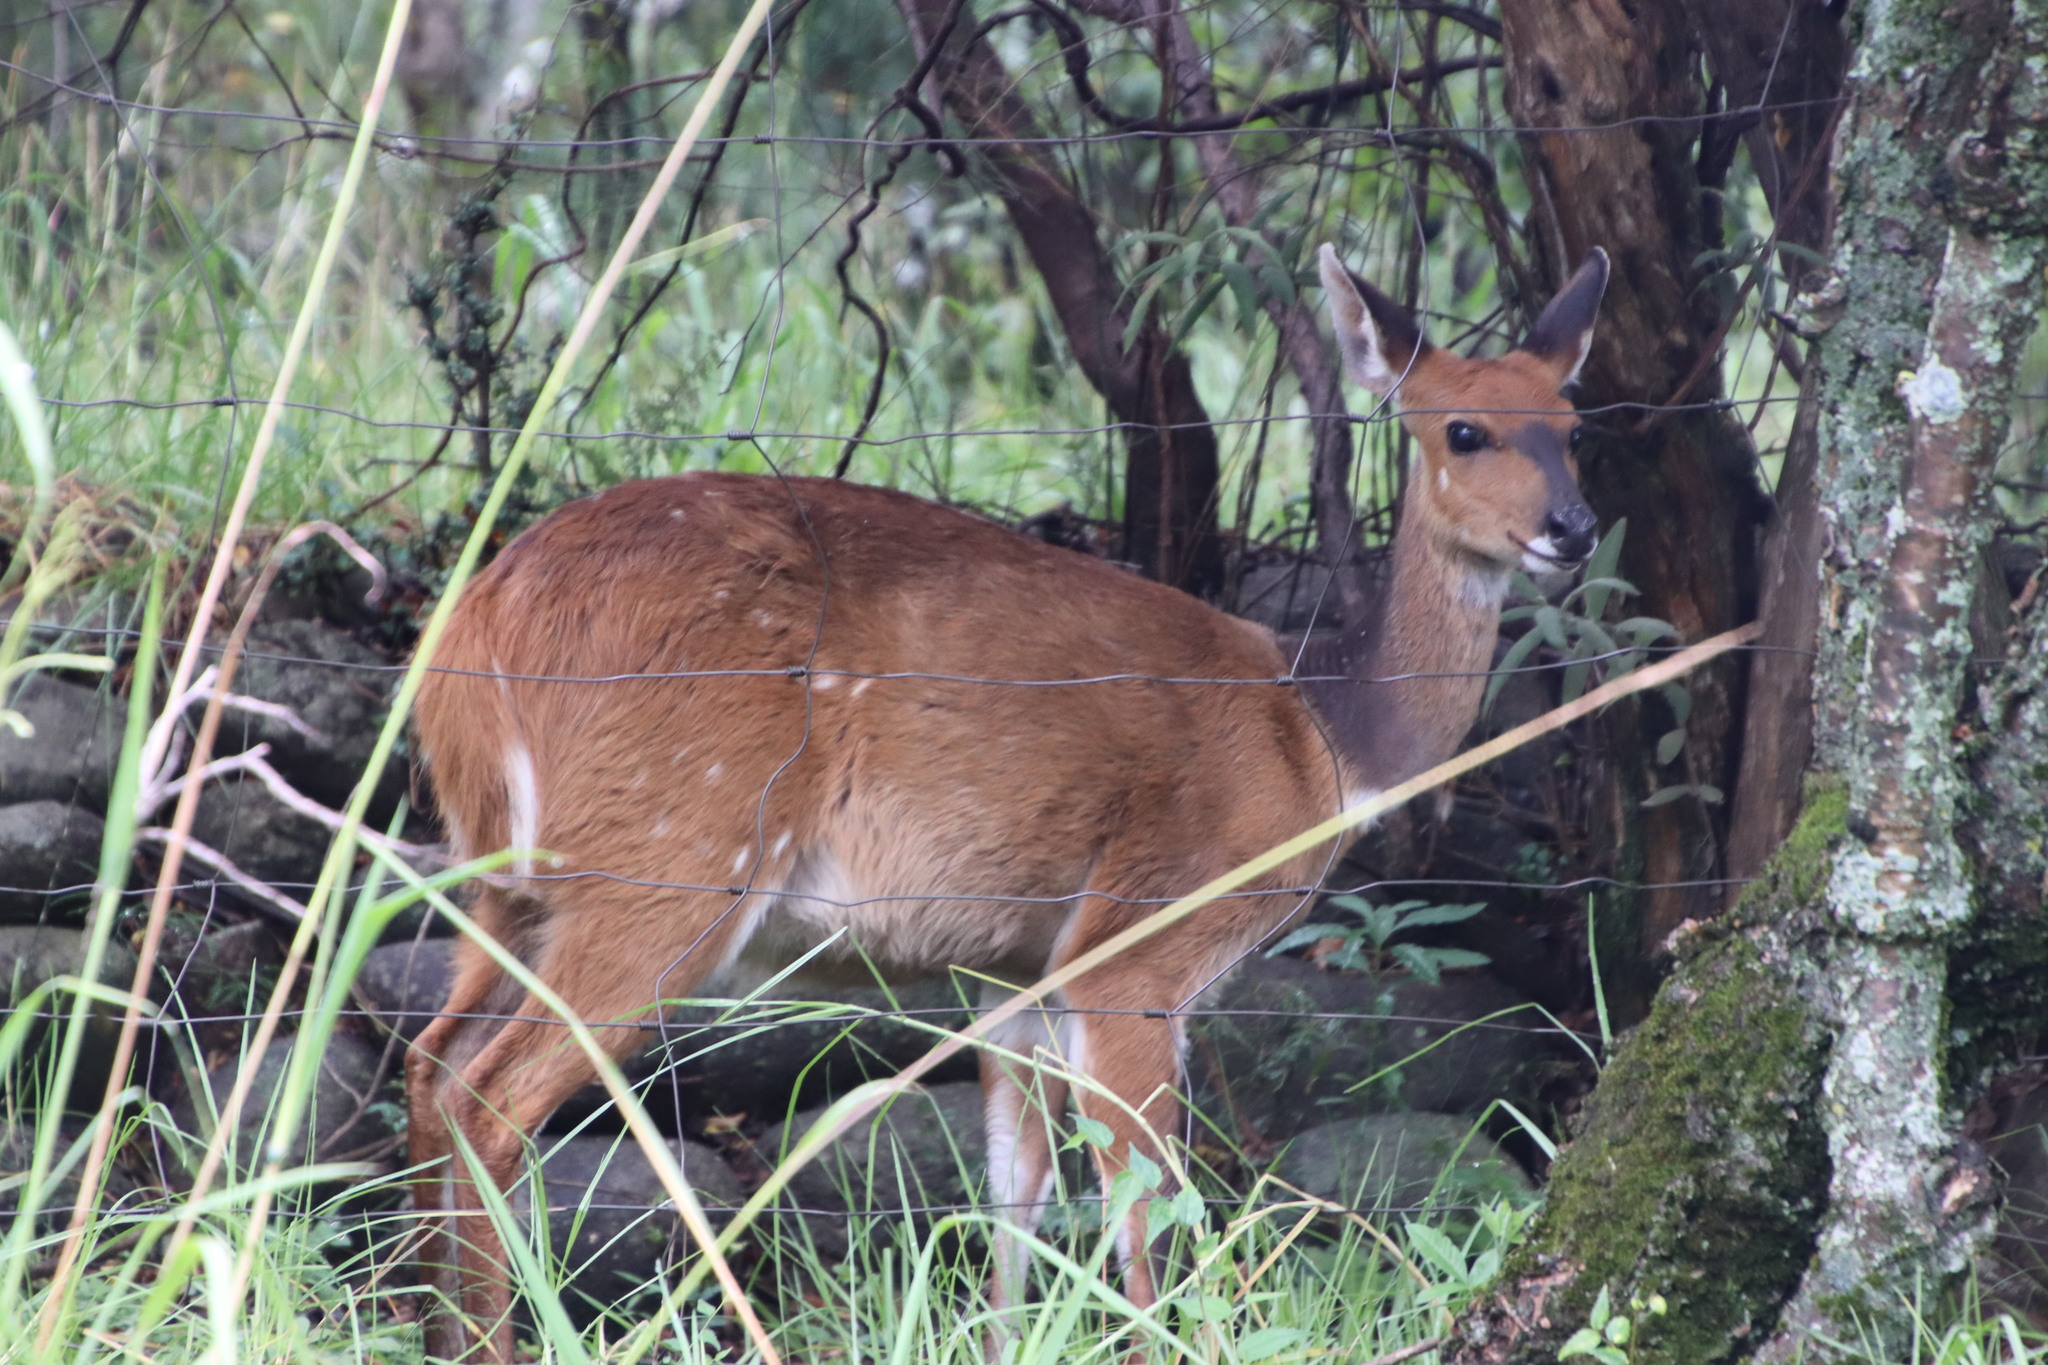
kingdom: Animalia
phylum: Chordata
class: Mammalia
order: Artiodactyla
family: Bovidae
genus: Tragelaphus
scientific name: Tragelaphus scriptus
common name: Bushbuck
